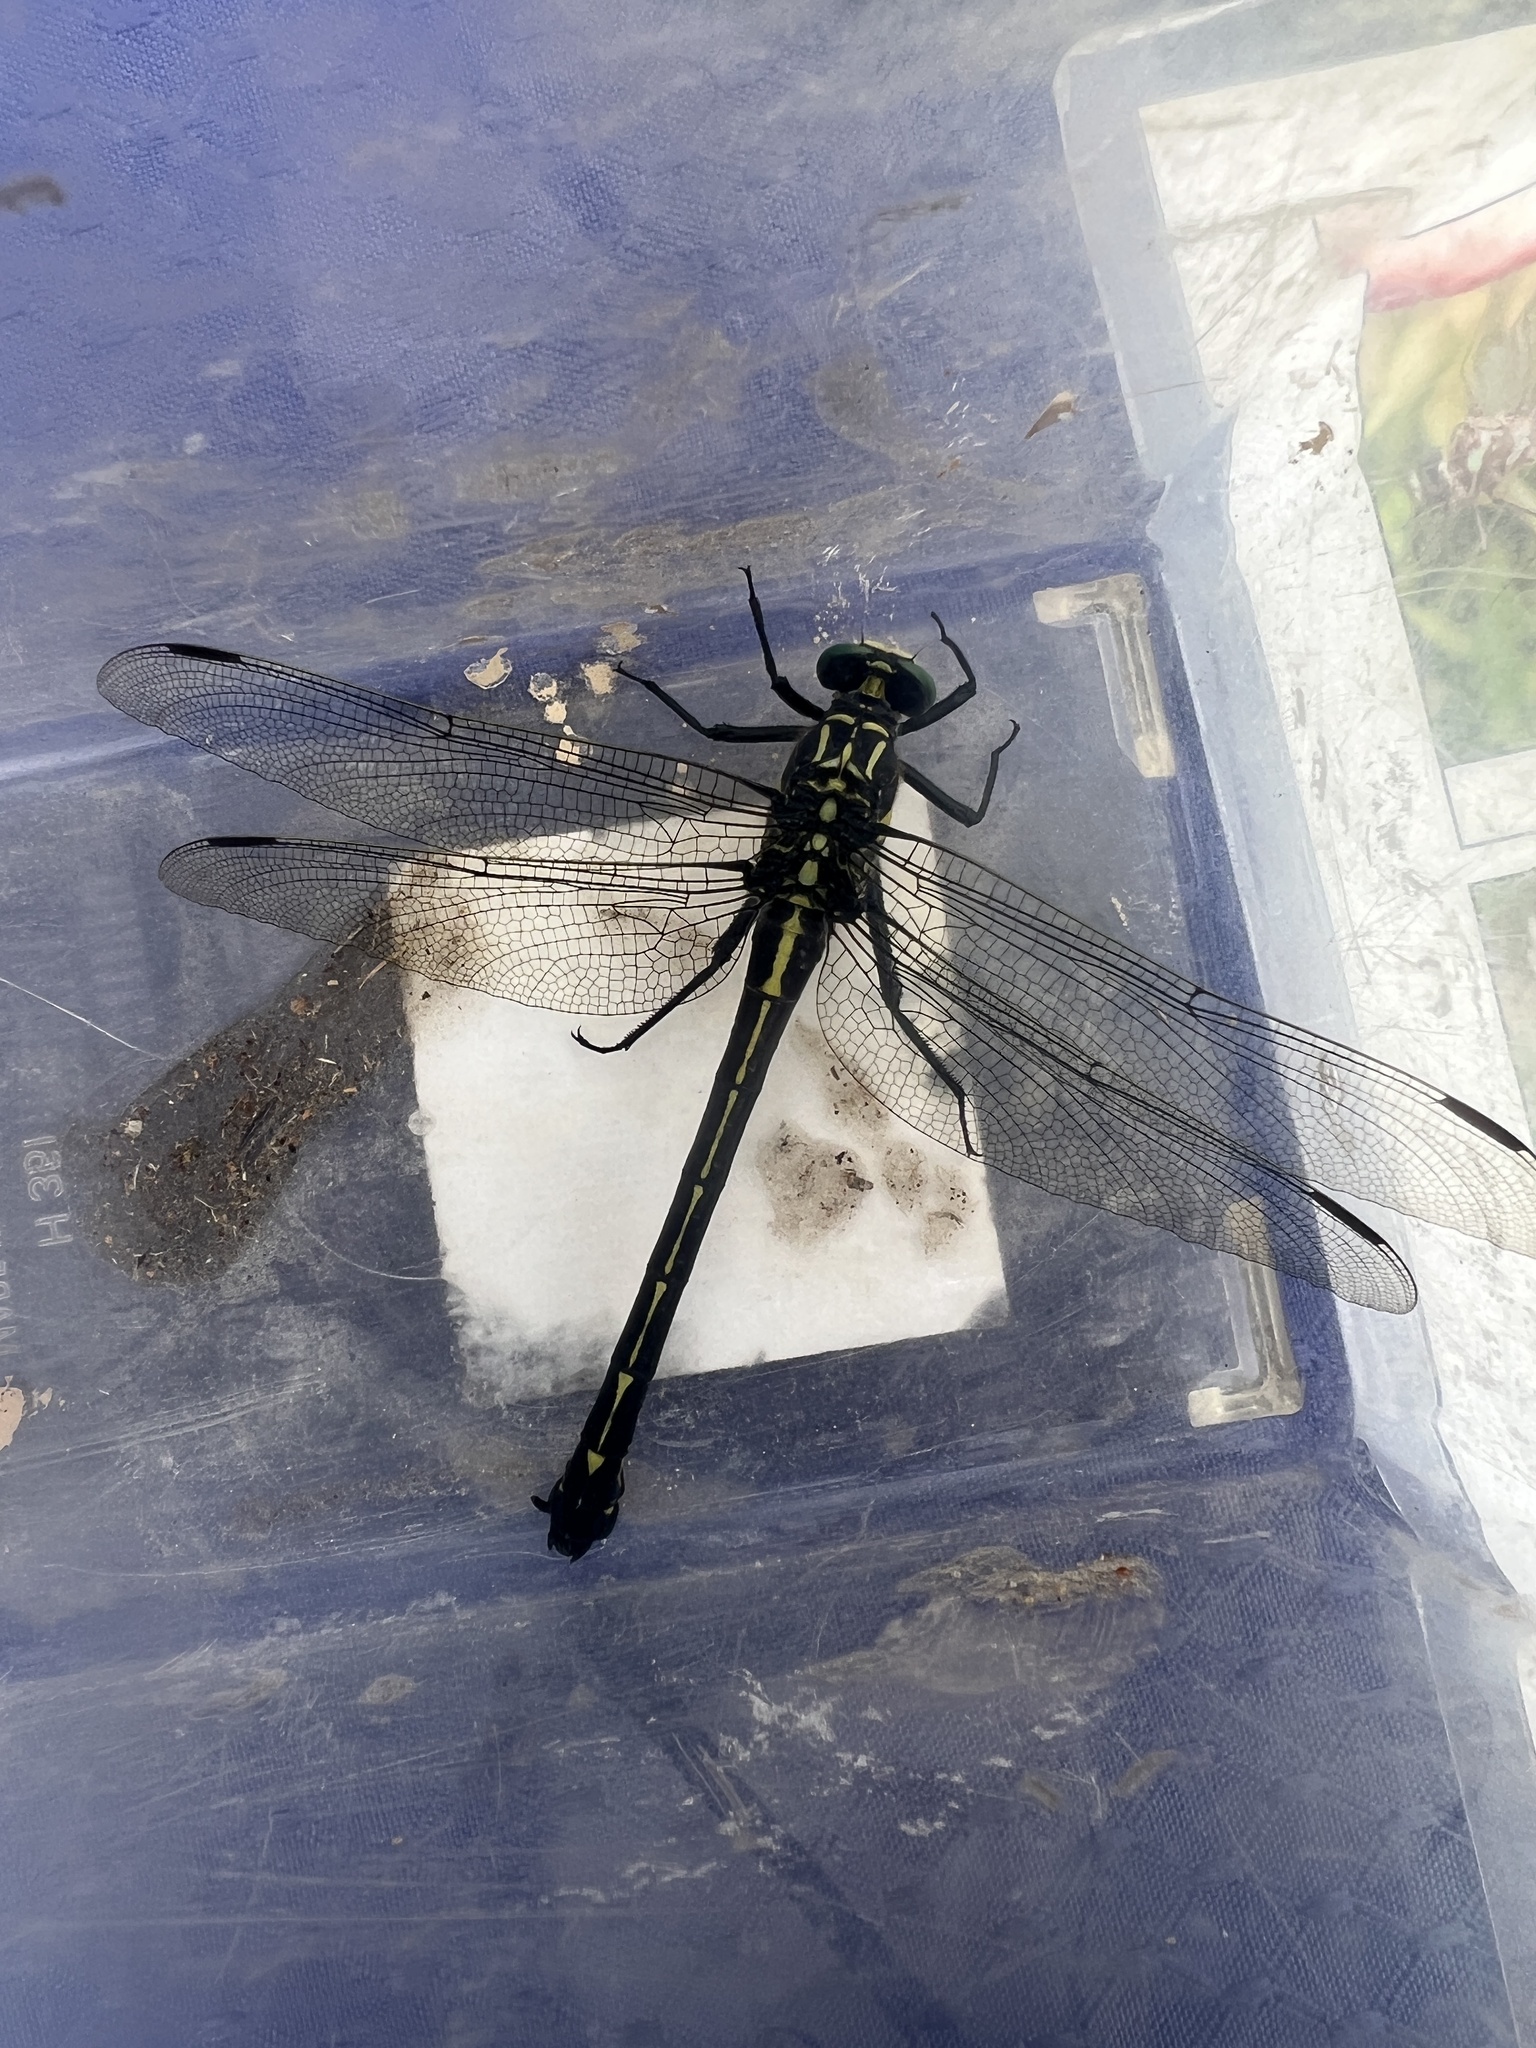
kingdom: Animalia
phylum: Arthropoda
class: Insecta
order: Odonata
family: Gomphidae
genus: Hagenius
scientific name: Hagenius brevistylus
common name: Dragonhunter
